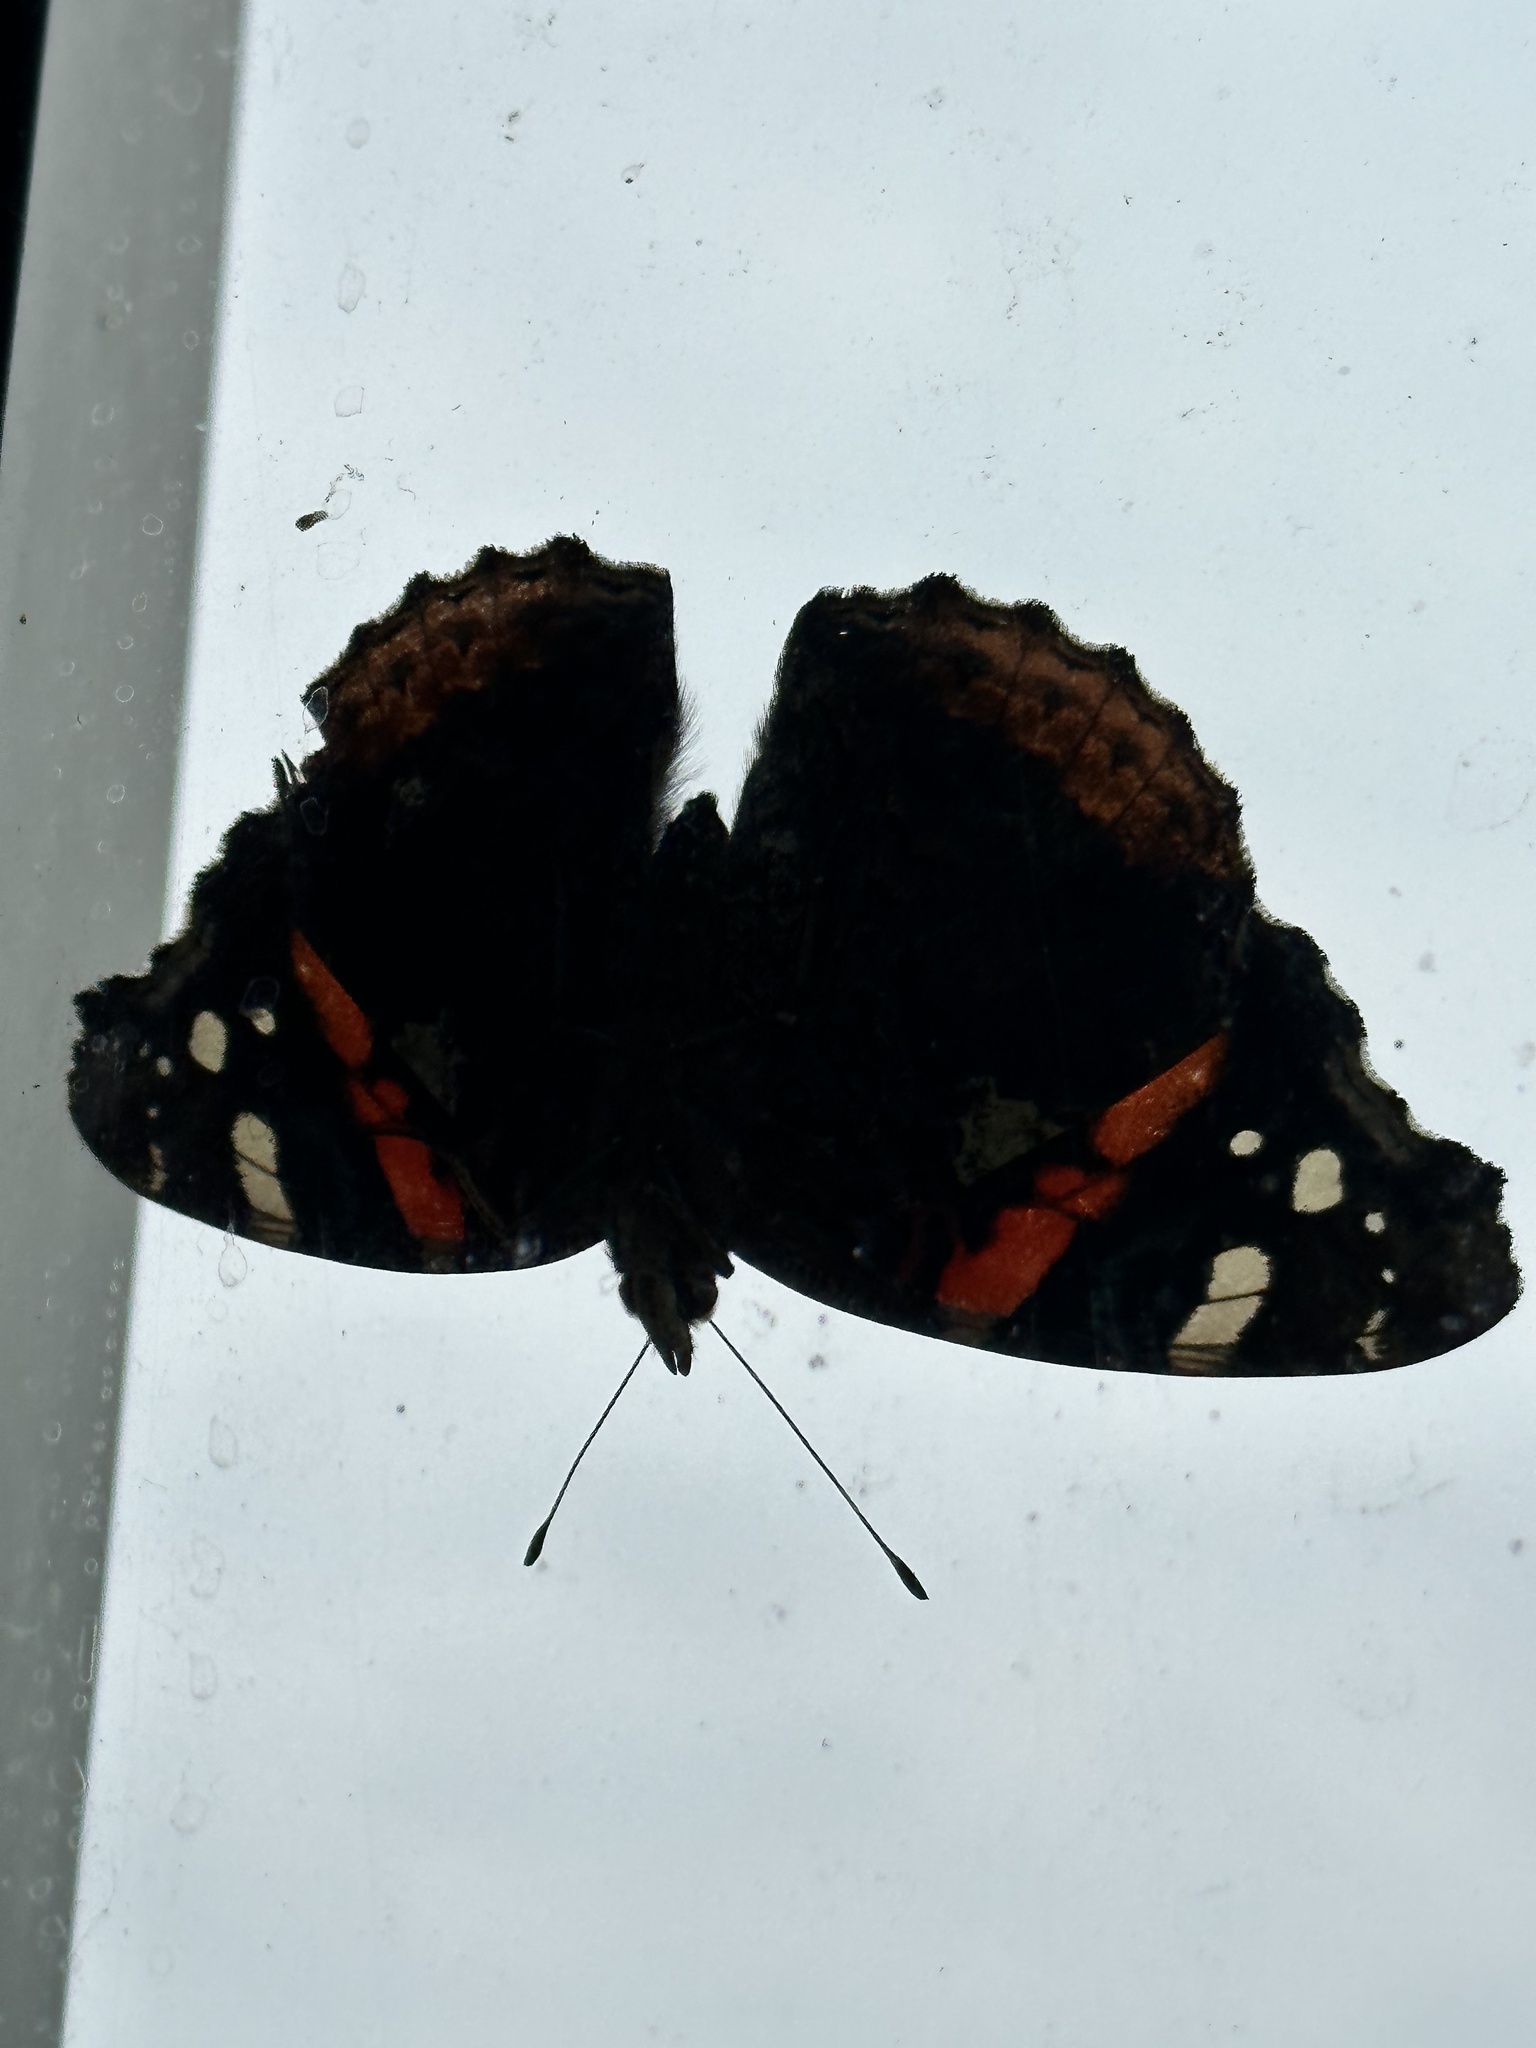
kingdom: Animalia
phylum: Arthropoda
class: Insecta
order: Lepidoptera
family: Nymphalidae
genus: Vanessa
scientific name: Vanessa atalanta
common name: Red admiral
